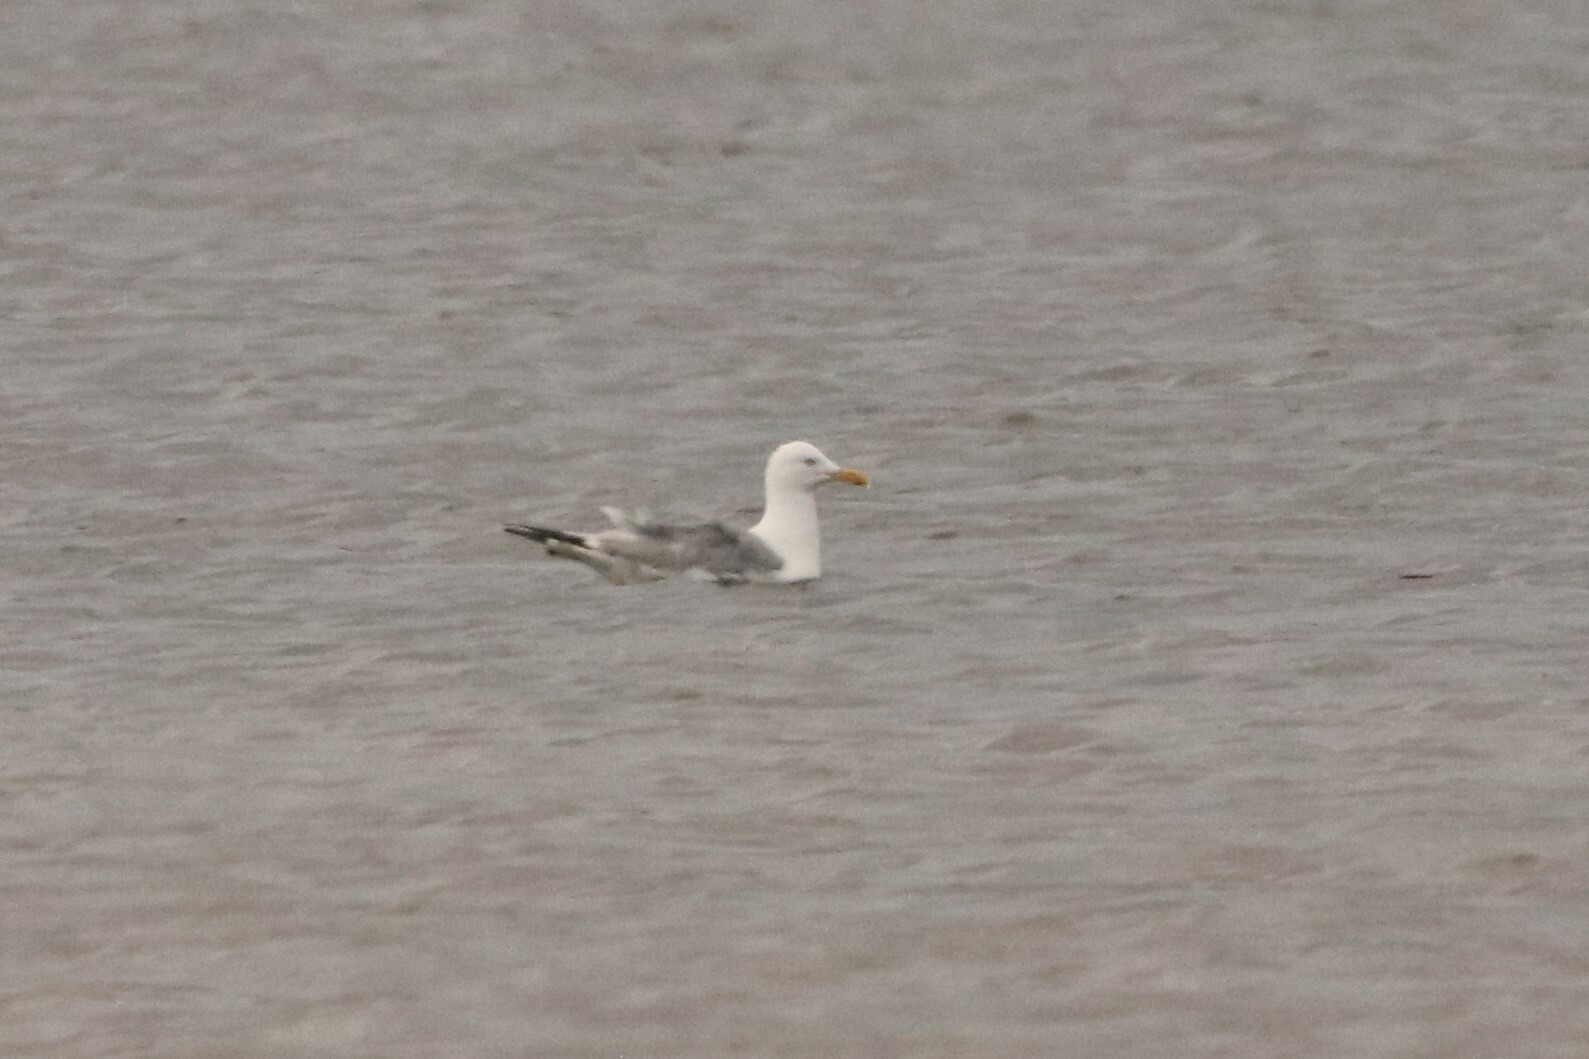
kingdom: Animalia
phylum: Chordata
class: Aves
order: Charadriiformes
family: Laridae
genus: Larus
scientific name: Larus argentatus
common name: Herring gull
